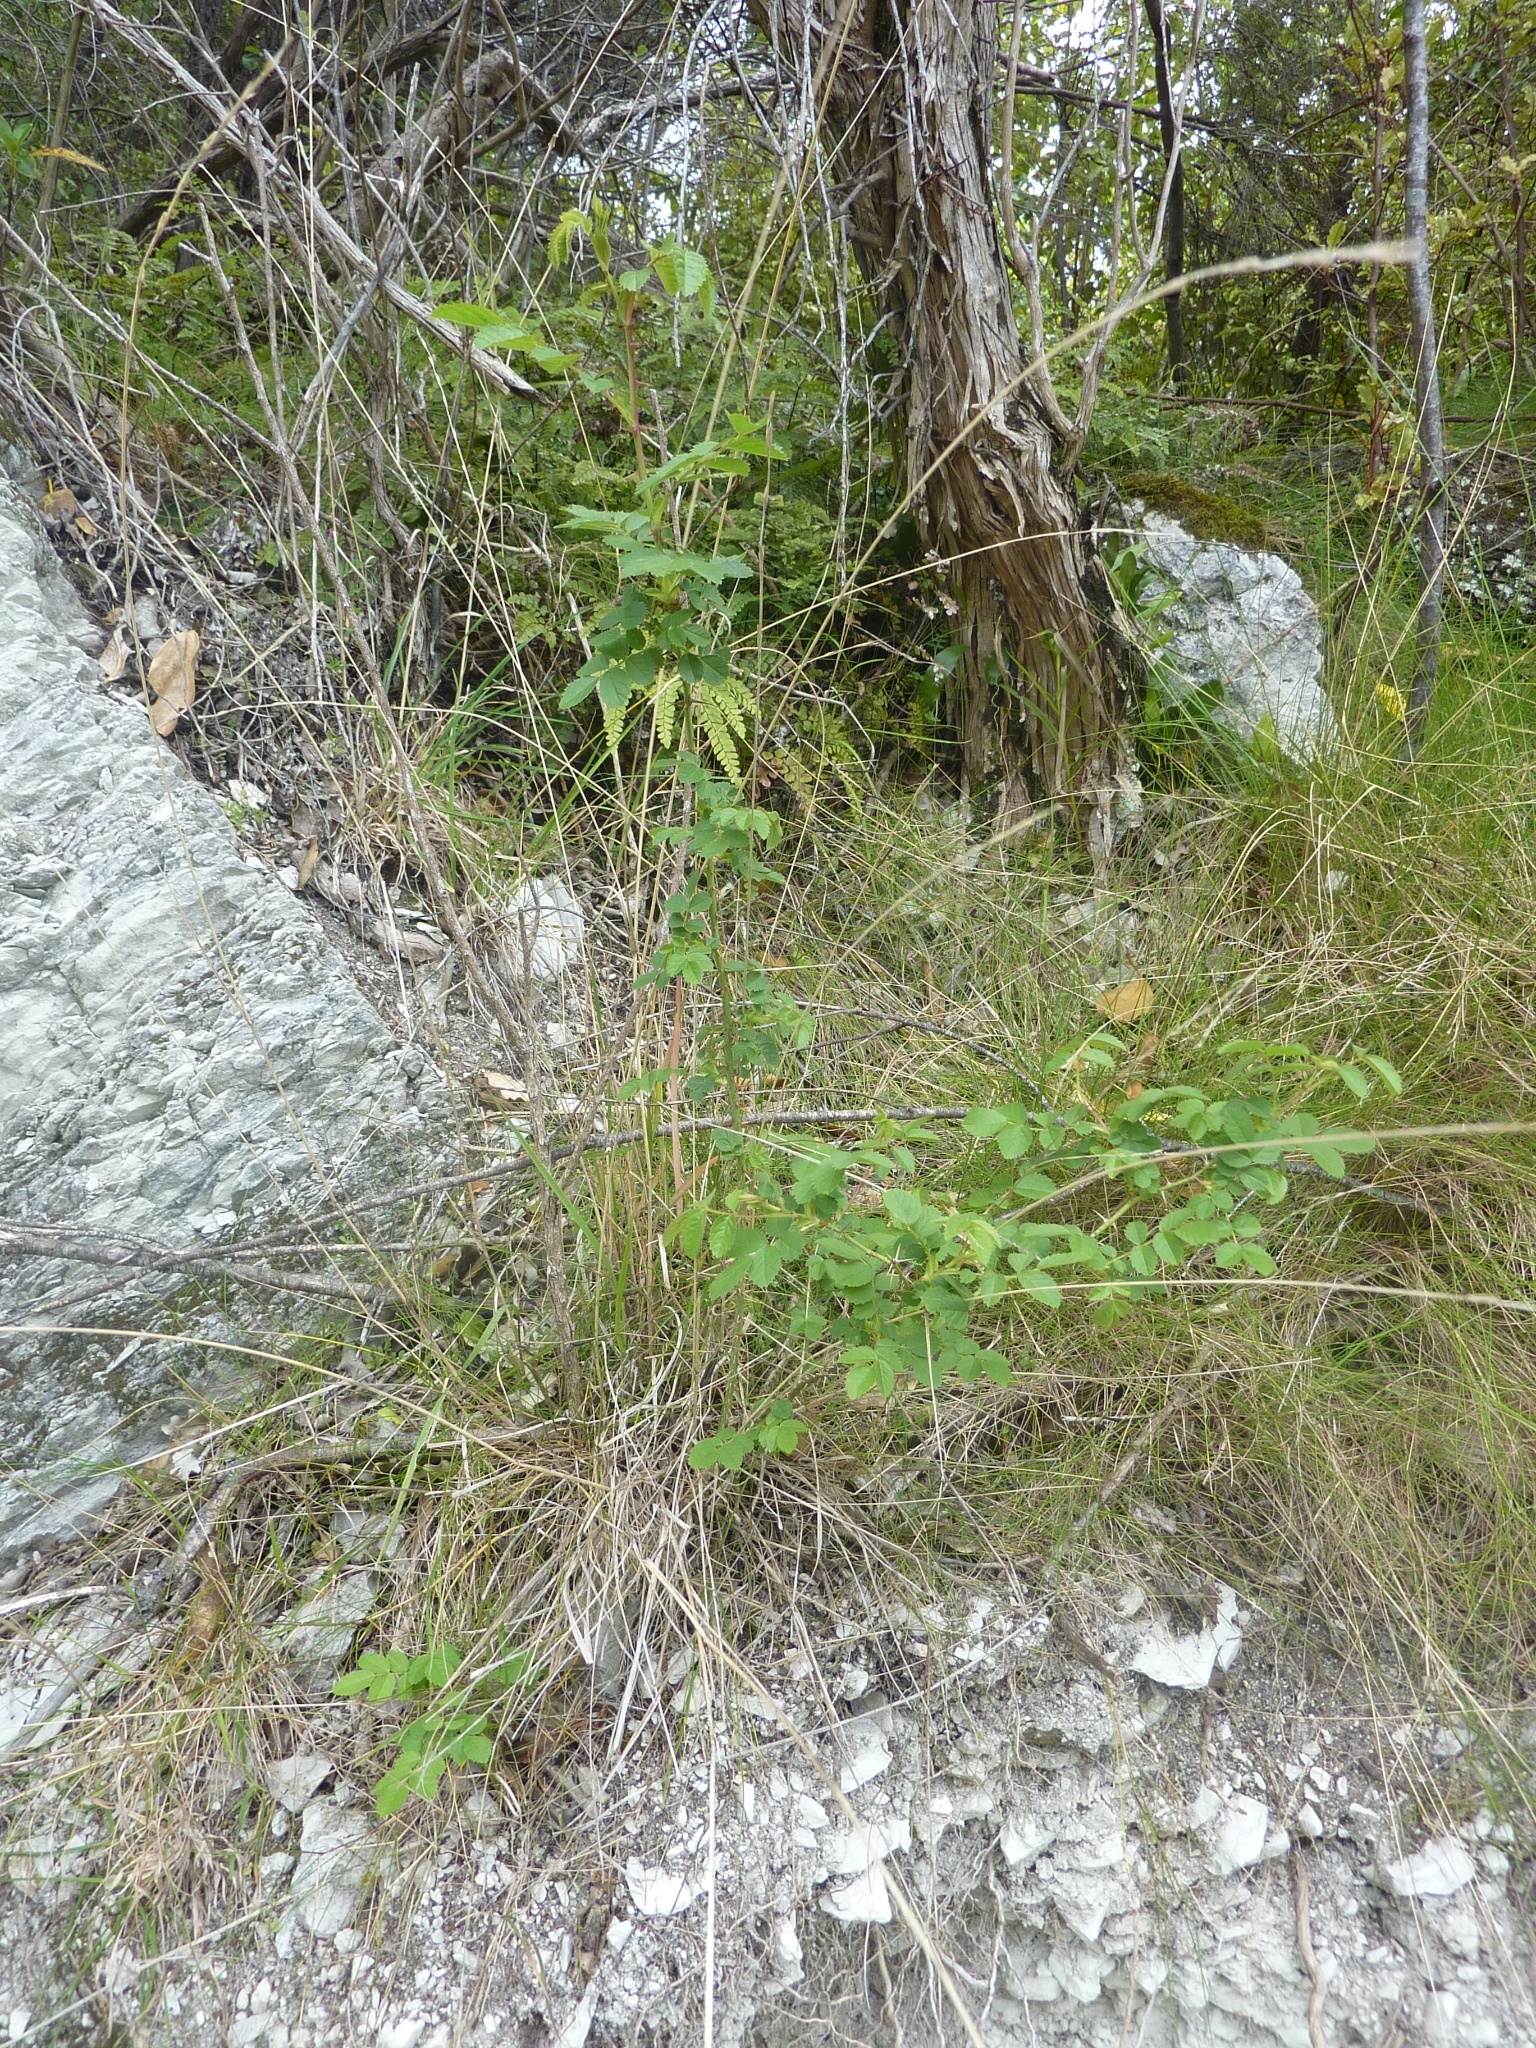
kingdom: Plantae
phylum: Tracheophyta
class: Magnoliopsida
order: Rosales
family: Rosaceae
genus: Rosa
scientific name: Rosa rubiginosa
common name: Sweet-briar
